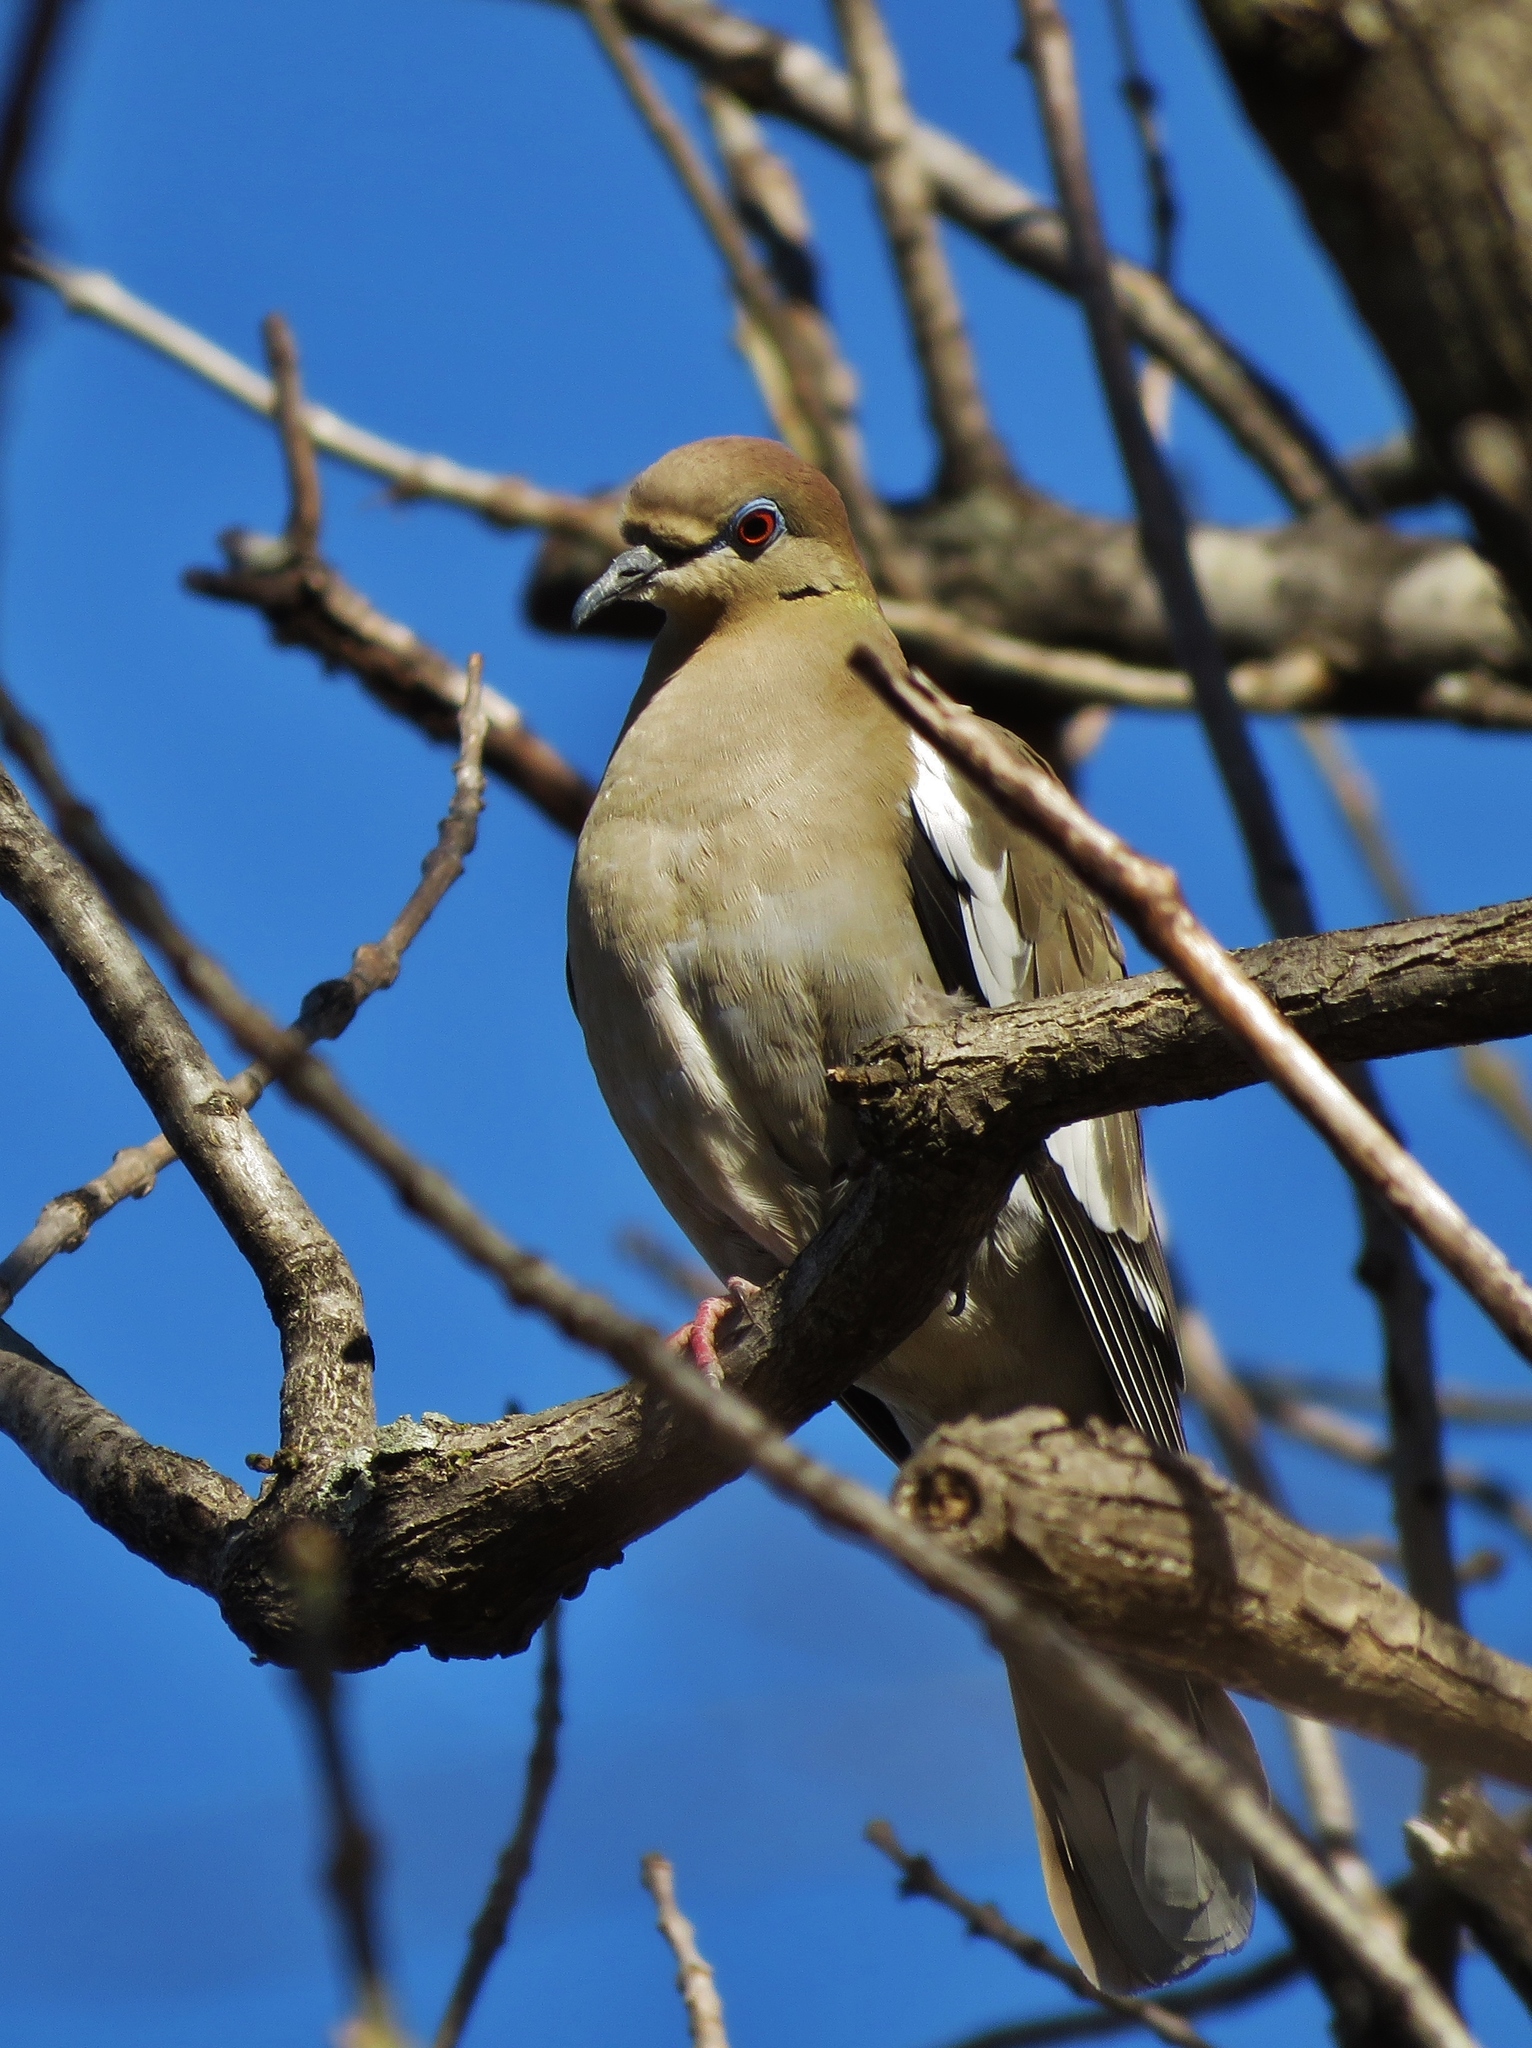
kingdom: Animalia
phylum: Chordata
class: Aves
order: Columbiformes
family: Columbidae
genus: Zenaida
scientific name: Zenaida asiatica
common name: White-winged dove
